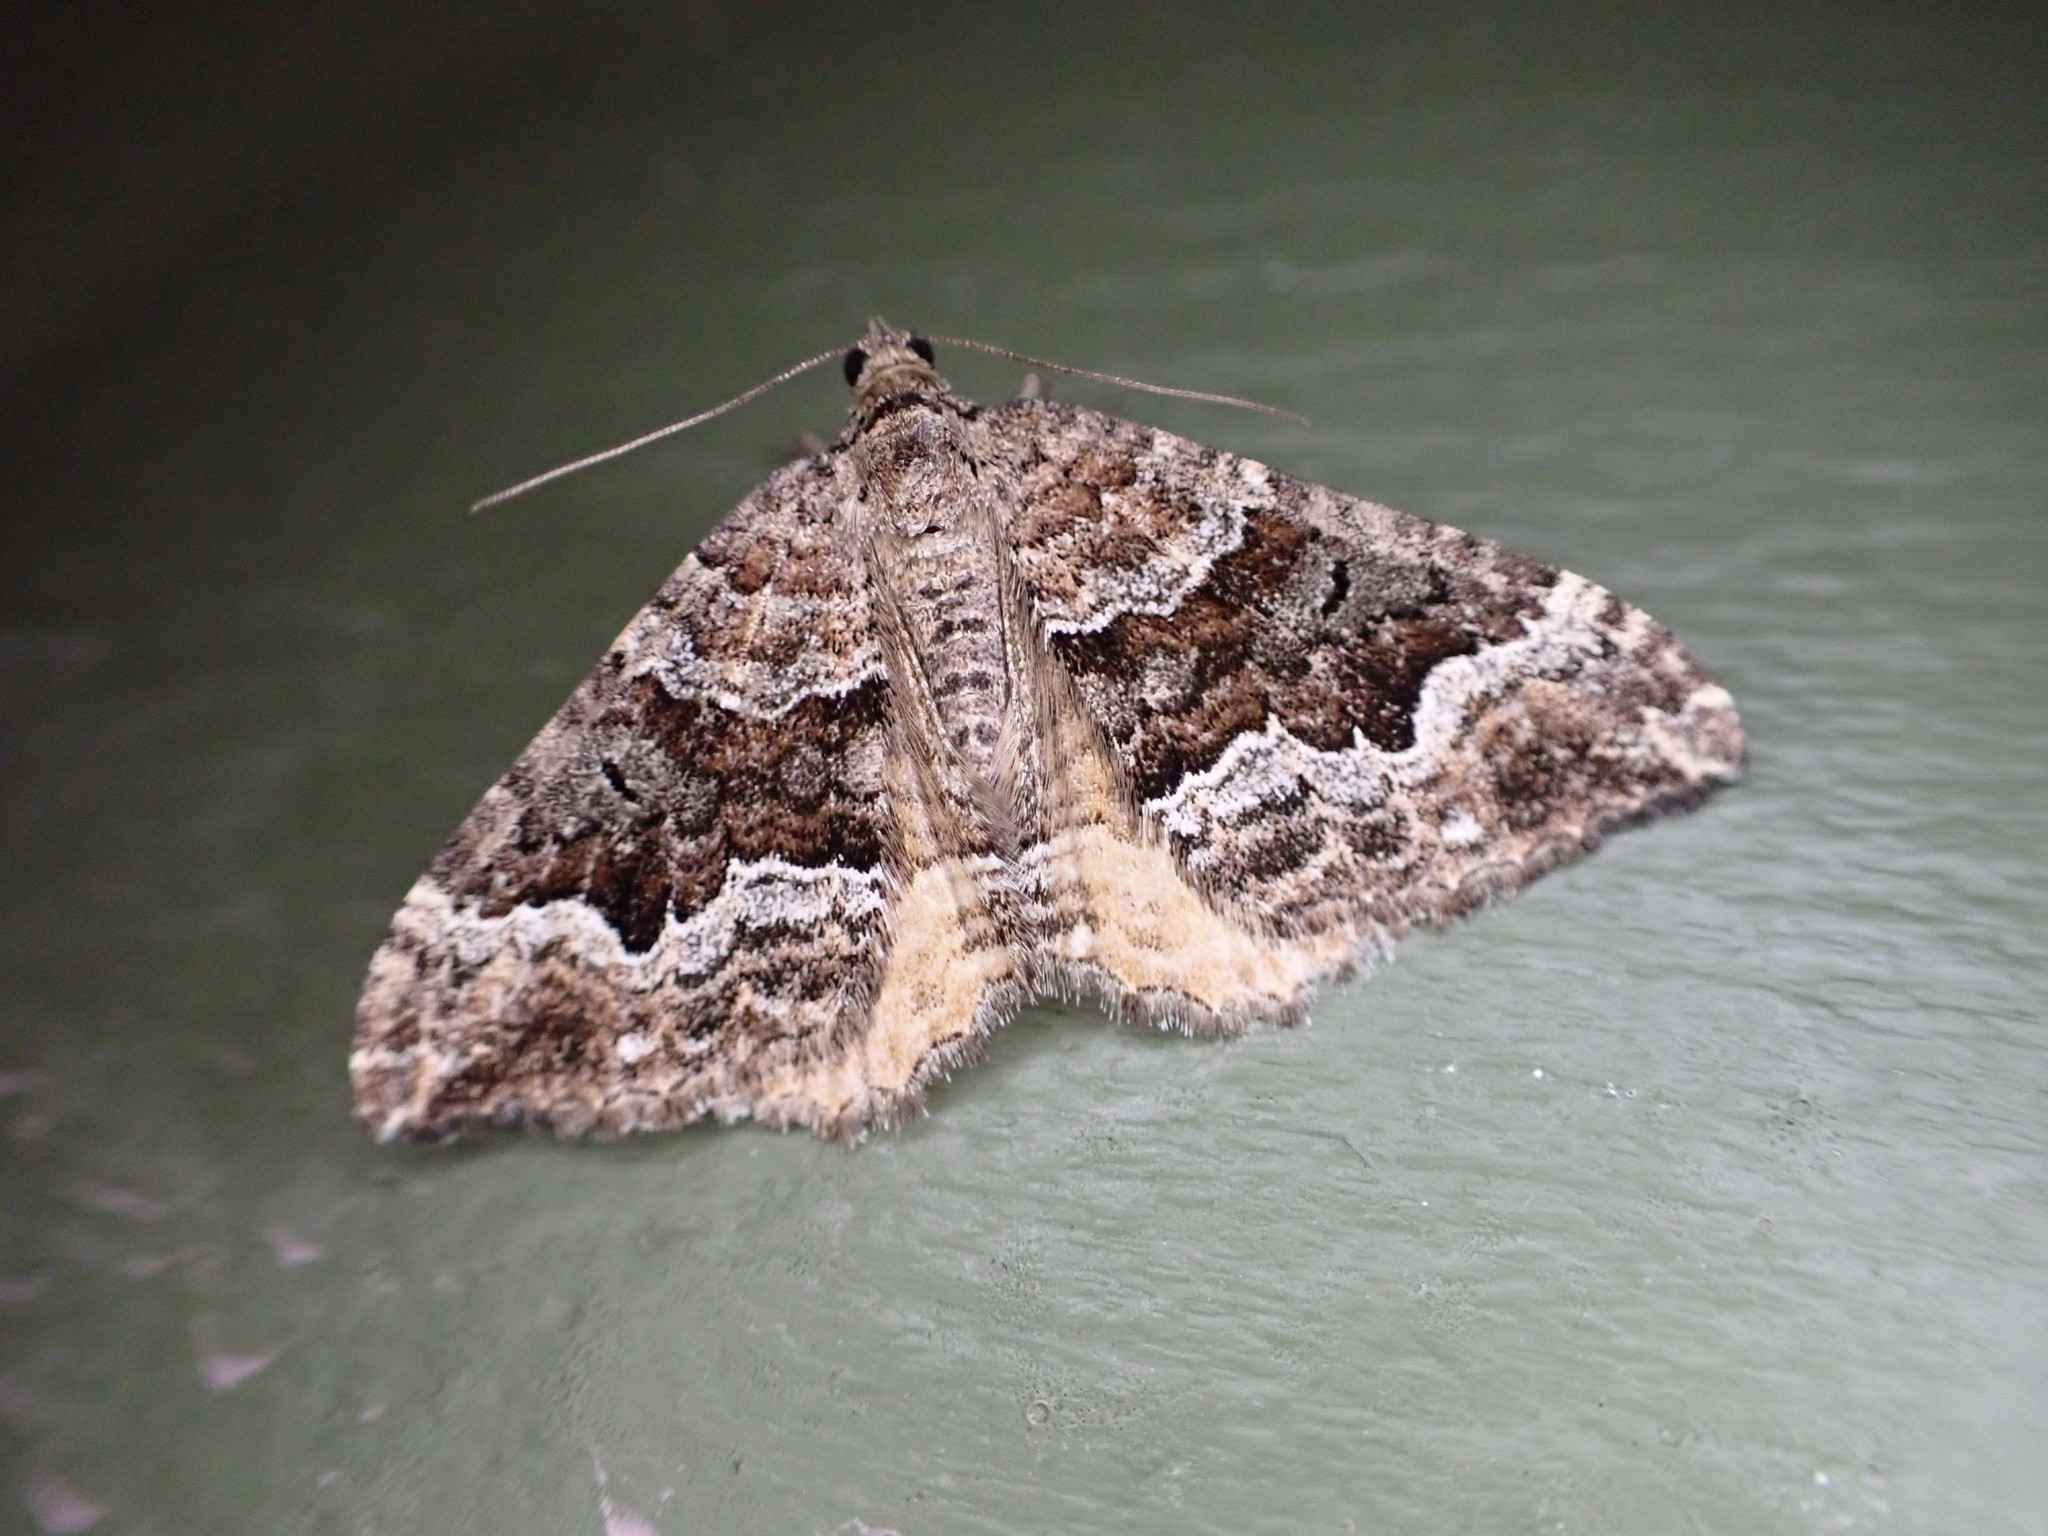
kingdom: Animalia
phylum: Arthropoda
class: Insecta
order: Lepidoptera
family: Geometridae
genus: Hydriomena
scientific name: Hydriomena deltoidata
